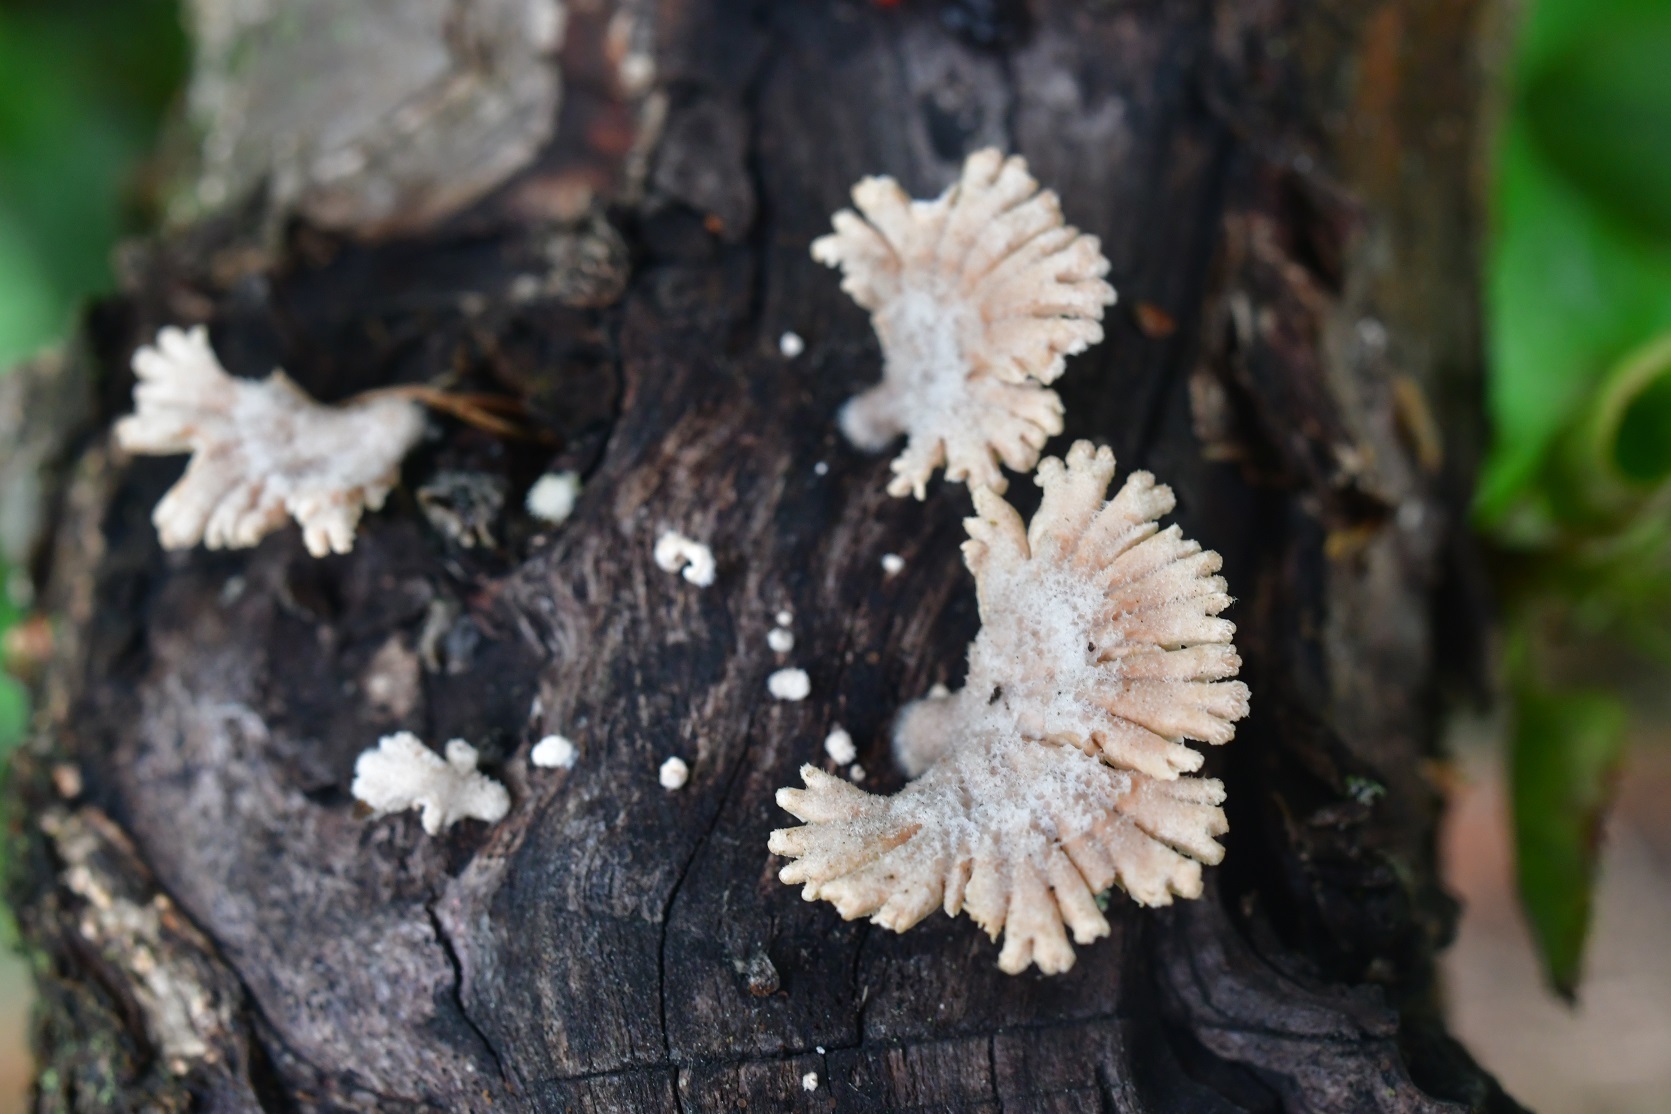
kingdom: Fungi
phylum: Basidiomycota
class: Agaricomycetes
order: Agaricales
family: Schizophyllaceae
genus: Schizophyllum
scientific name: Schizophyllum commune
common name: Common porecrust
